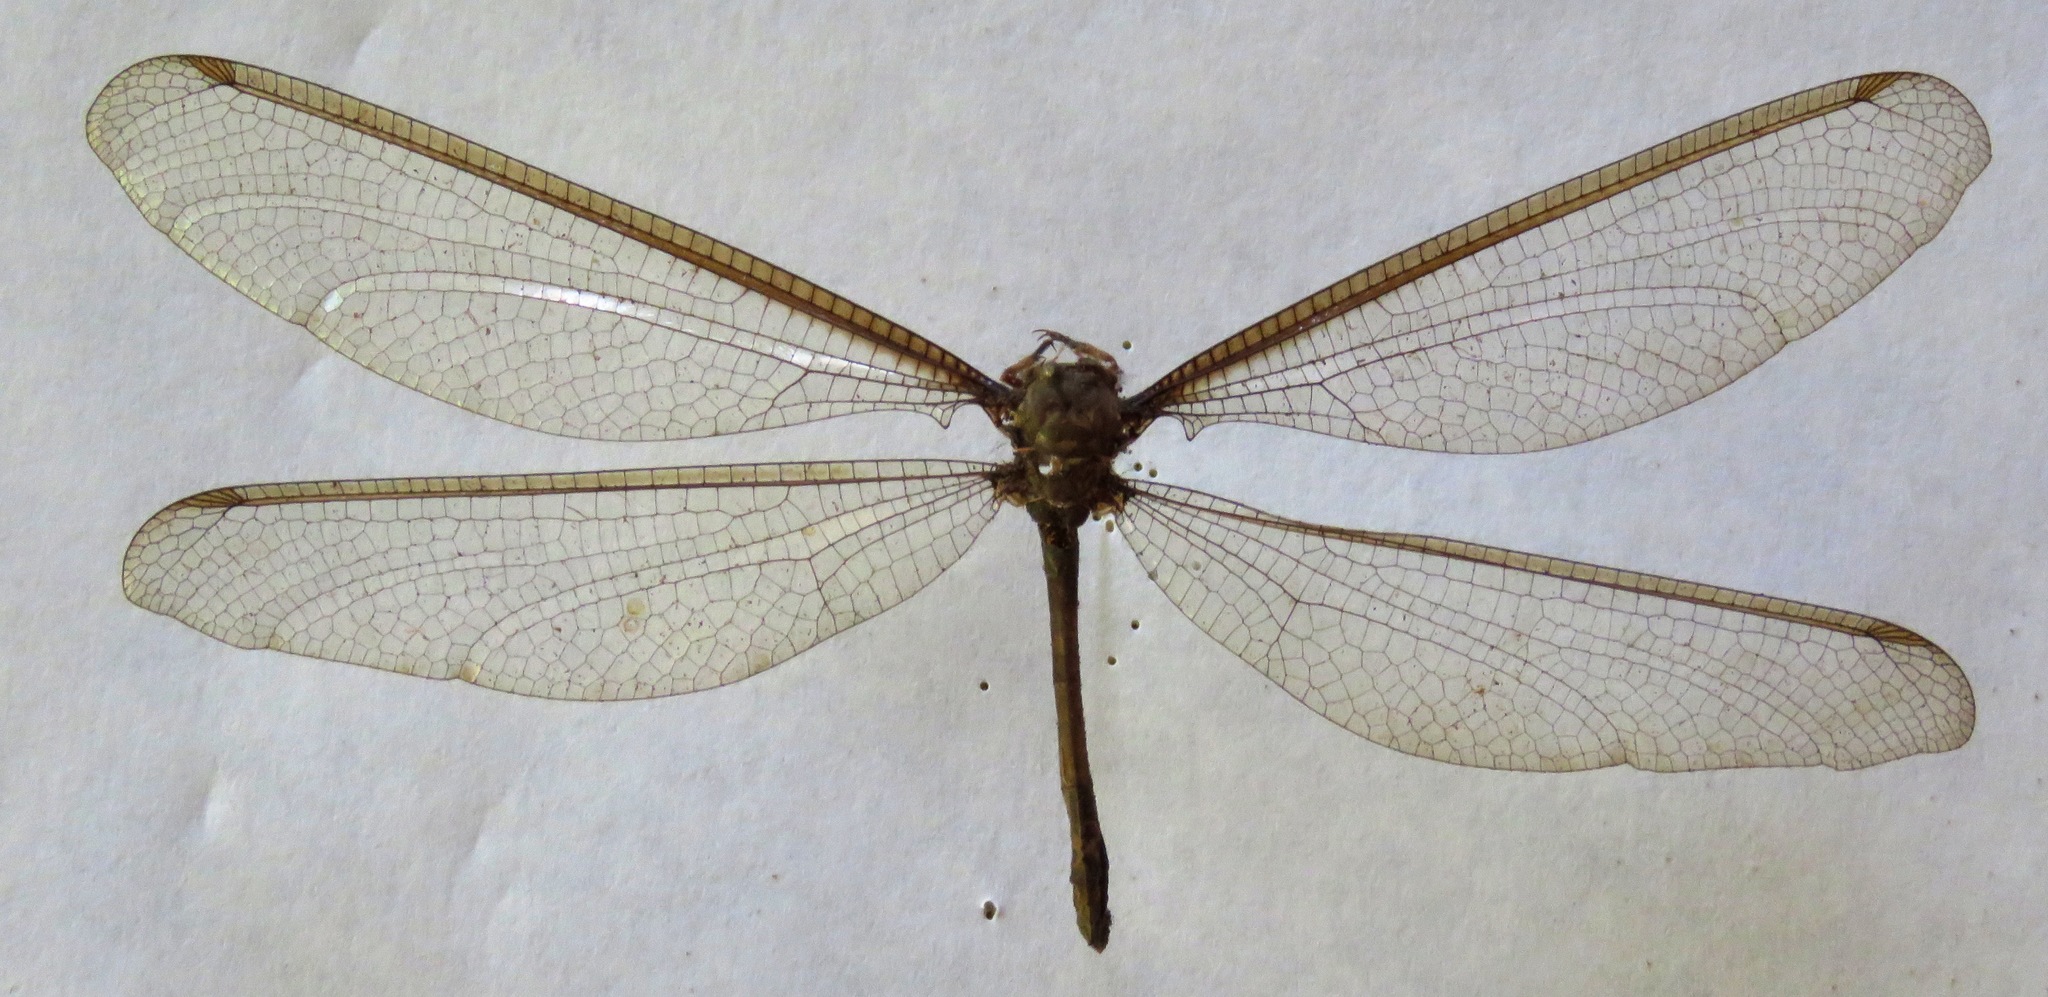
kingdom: Animalia
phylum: Arthropoda
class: Insecta
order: Neuroptera
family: Ascalaphidae
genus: Haploglenius
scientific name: Haploglenius flavicornis
